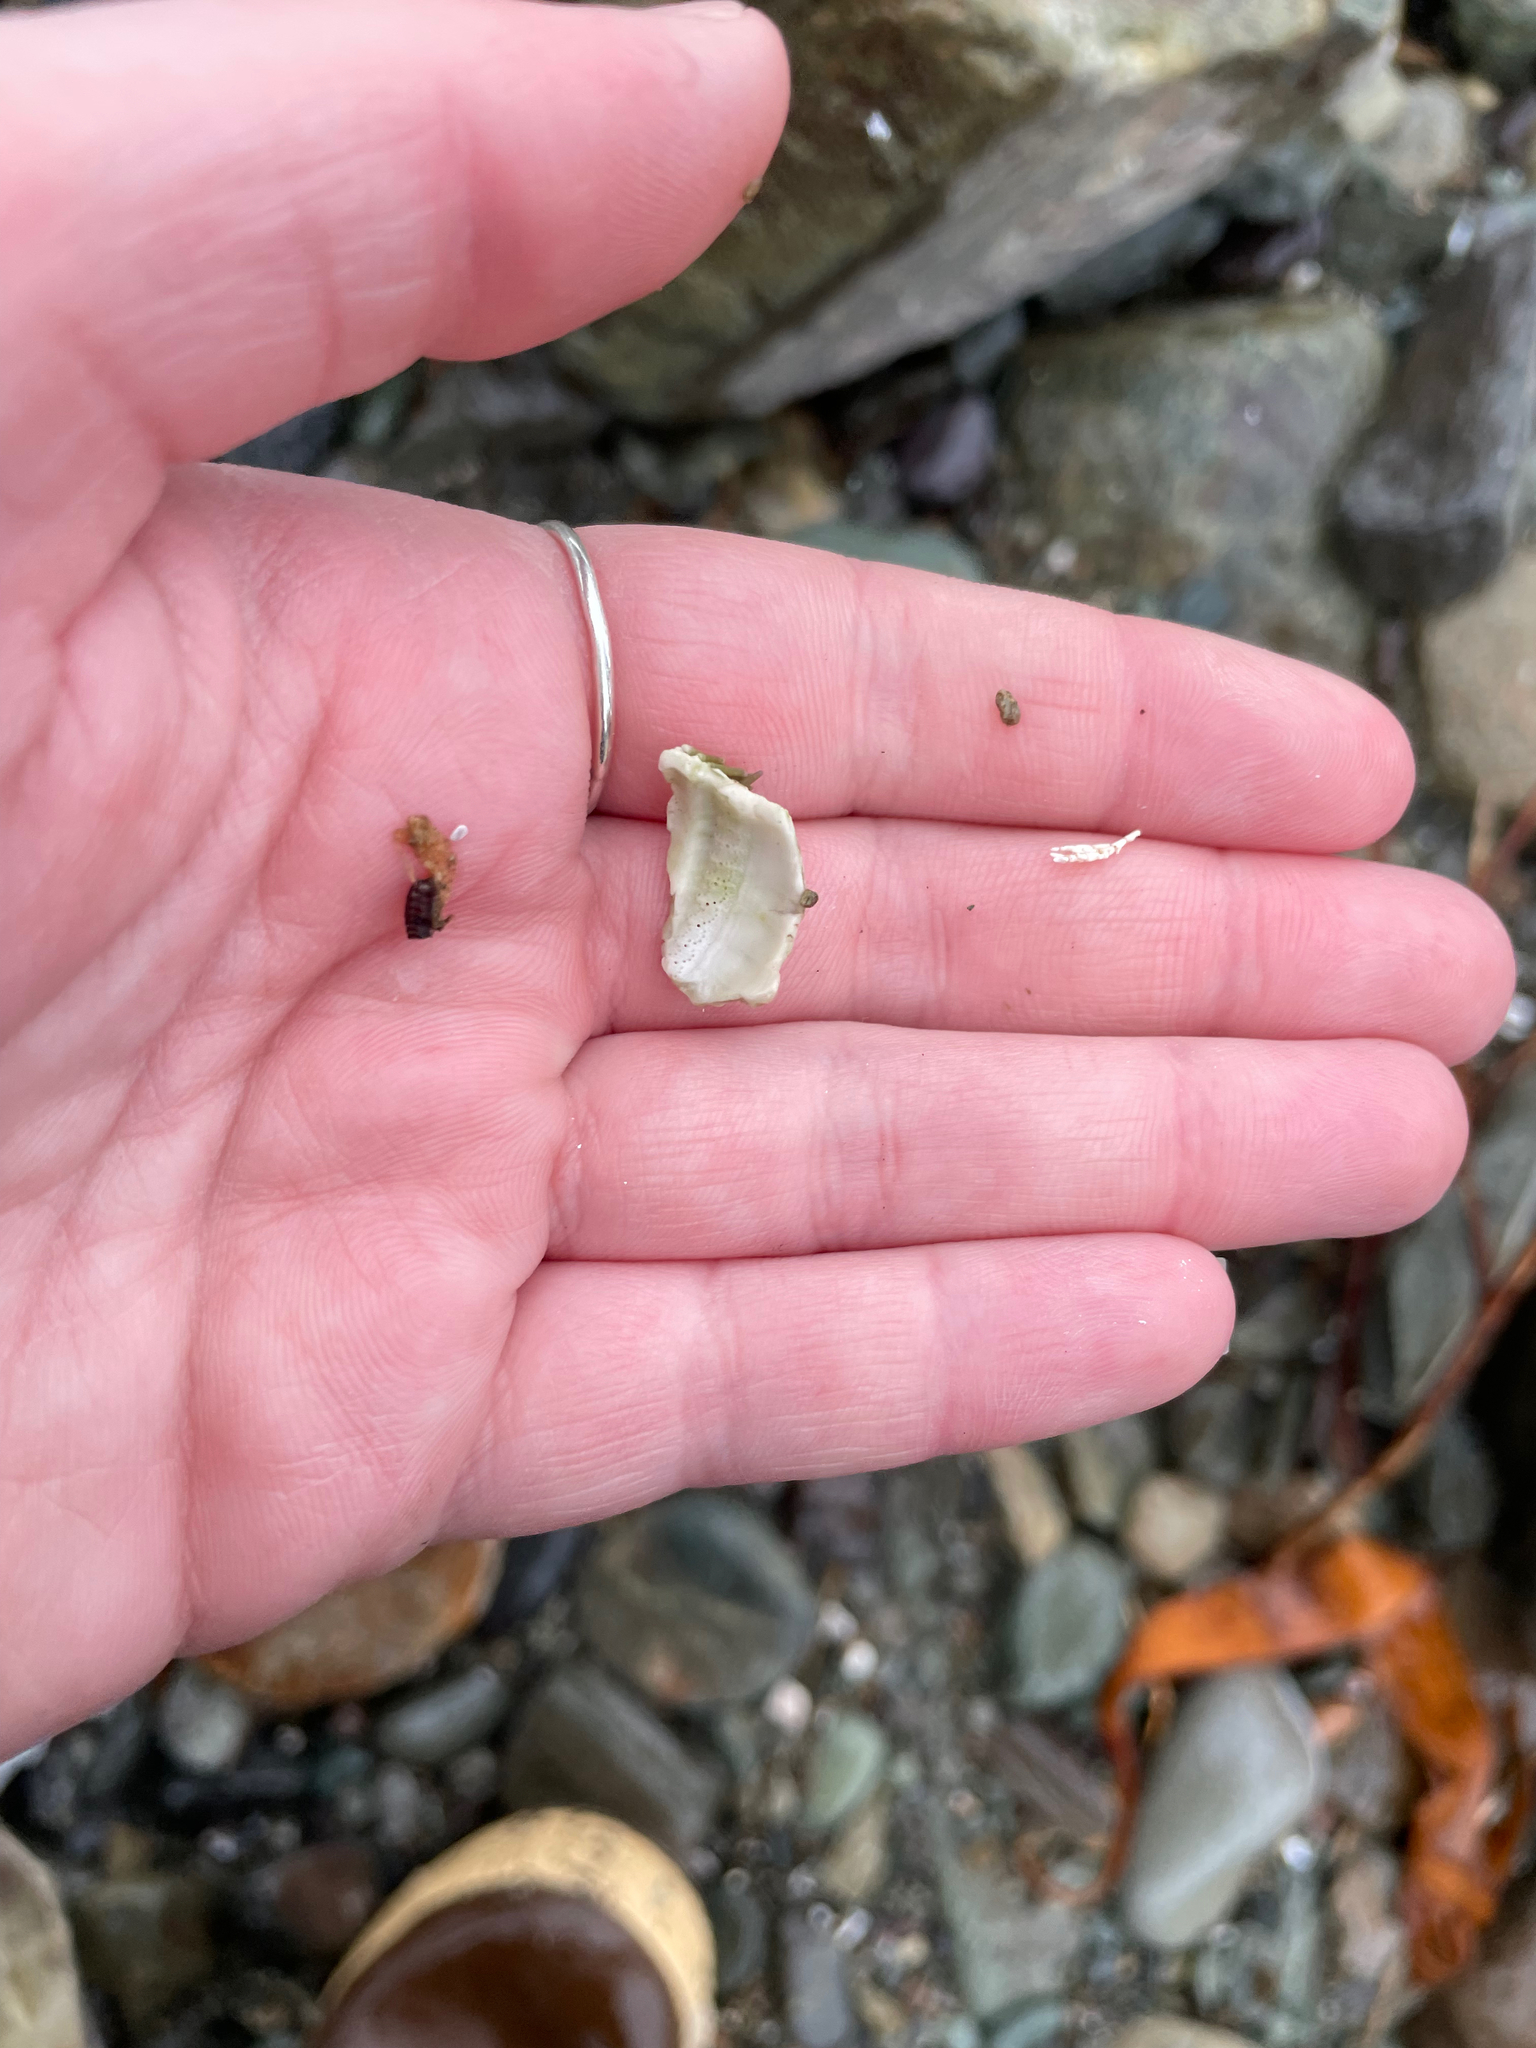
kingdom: Animalia
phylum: Echinodermata
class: Echinoidea
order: Camarodonta
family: Strongylocentrotidae
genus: Strongylocentrotus
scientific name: Strongylocentrotus droebachiensis
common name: Northern sea urchin
